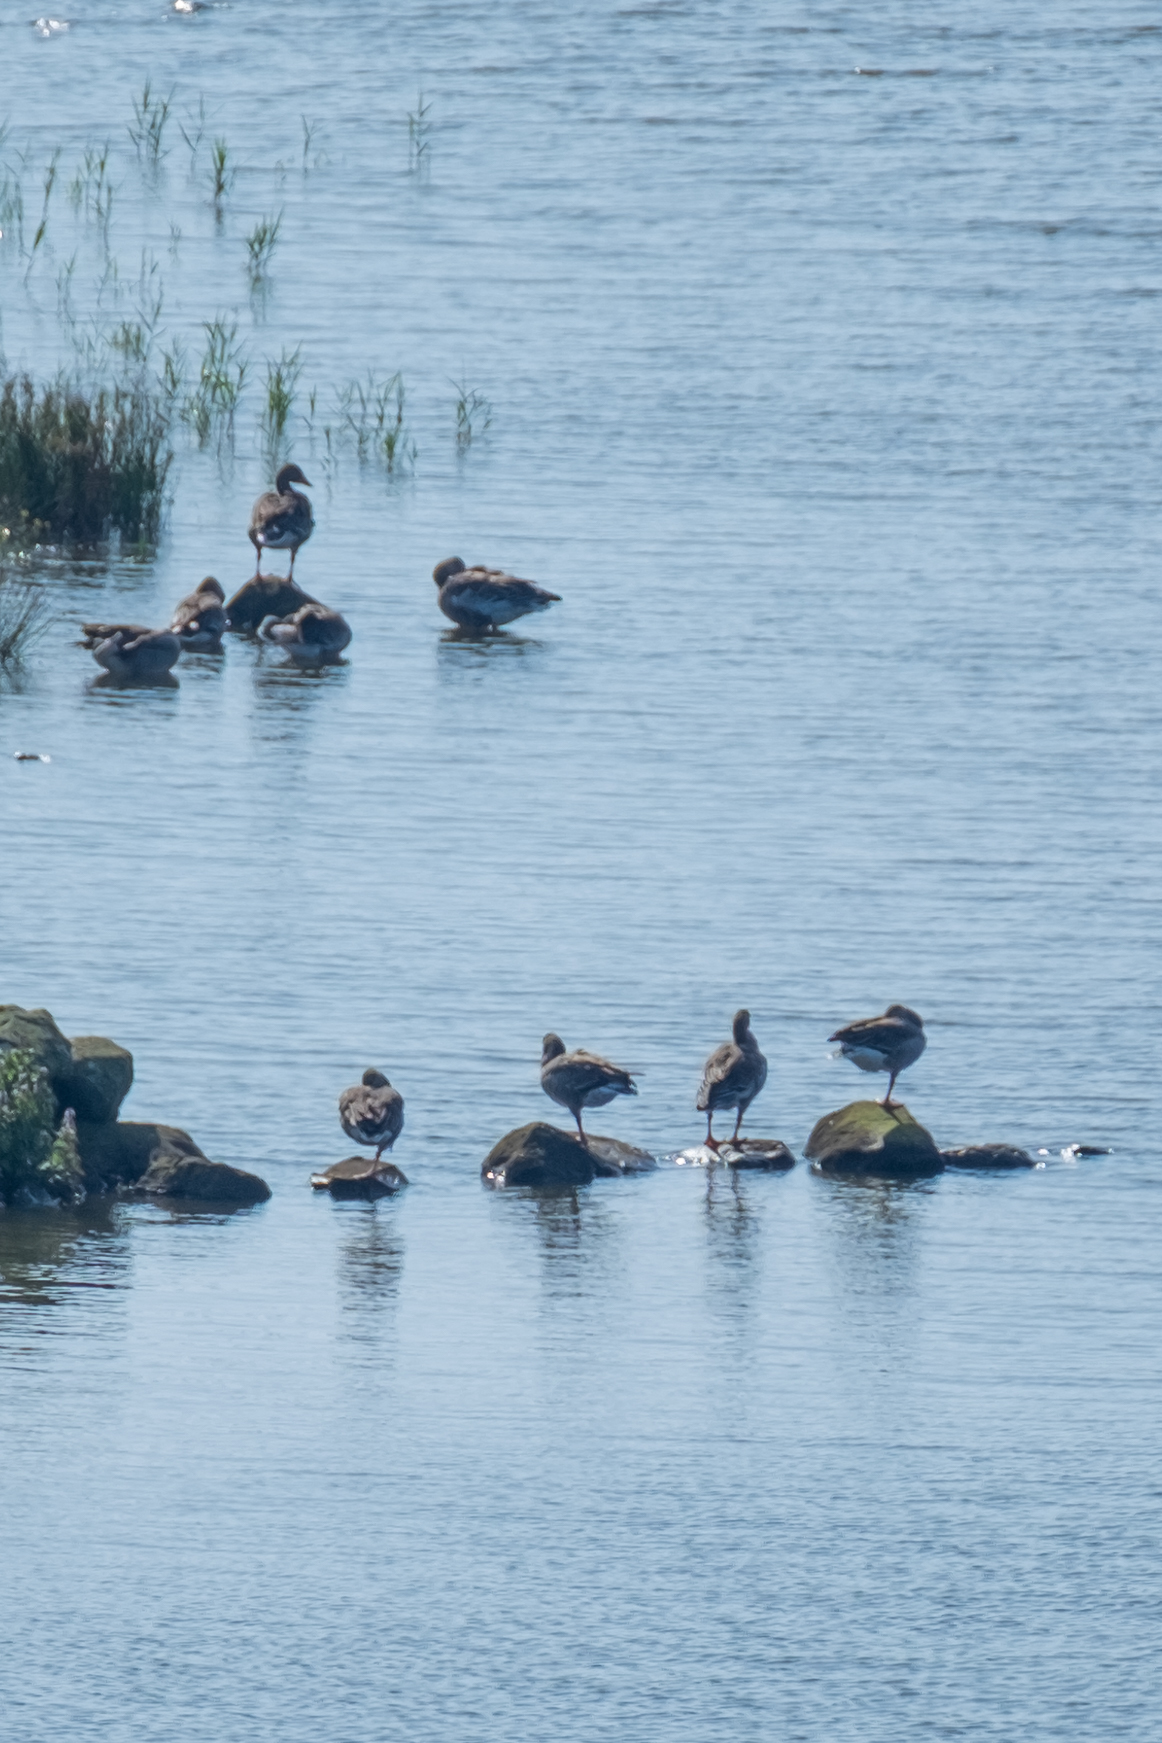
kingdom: Animalia
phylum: Chordata
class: Aves
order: Anseriformes
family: Anatidae
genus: Anser
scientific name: Anser anser
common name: Greylag goose
